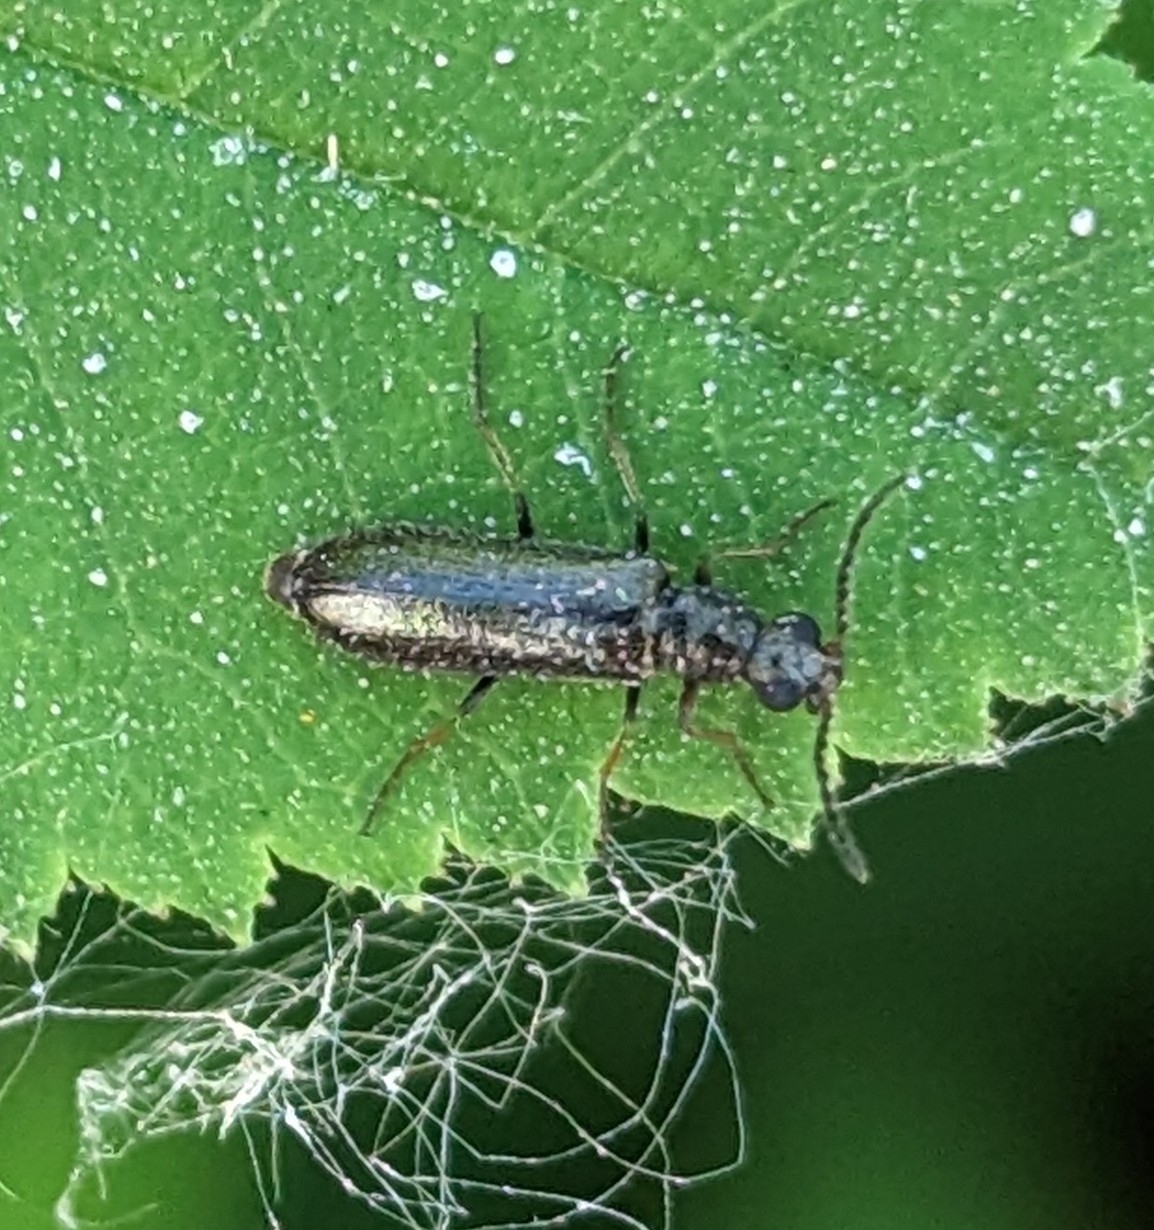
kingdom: Animalia
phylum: Arthropoda
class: Insecta
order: Coleoptera
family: Melyridae
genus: Dasytes
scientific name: Dasytes plumbeus
